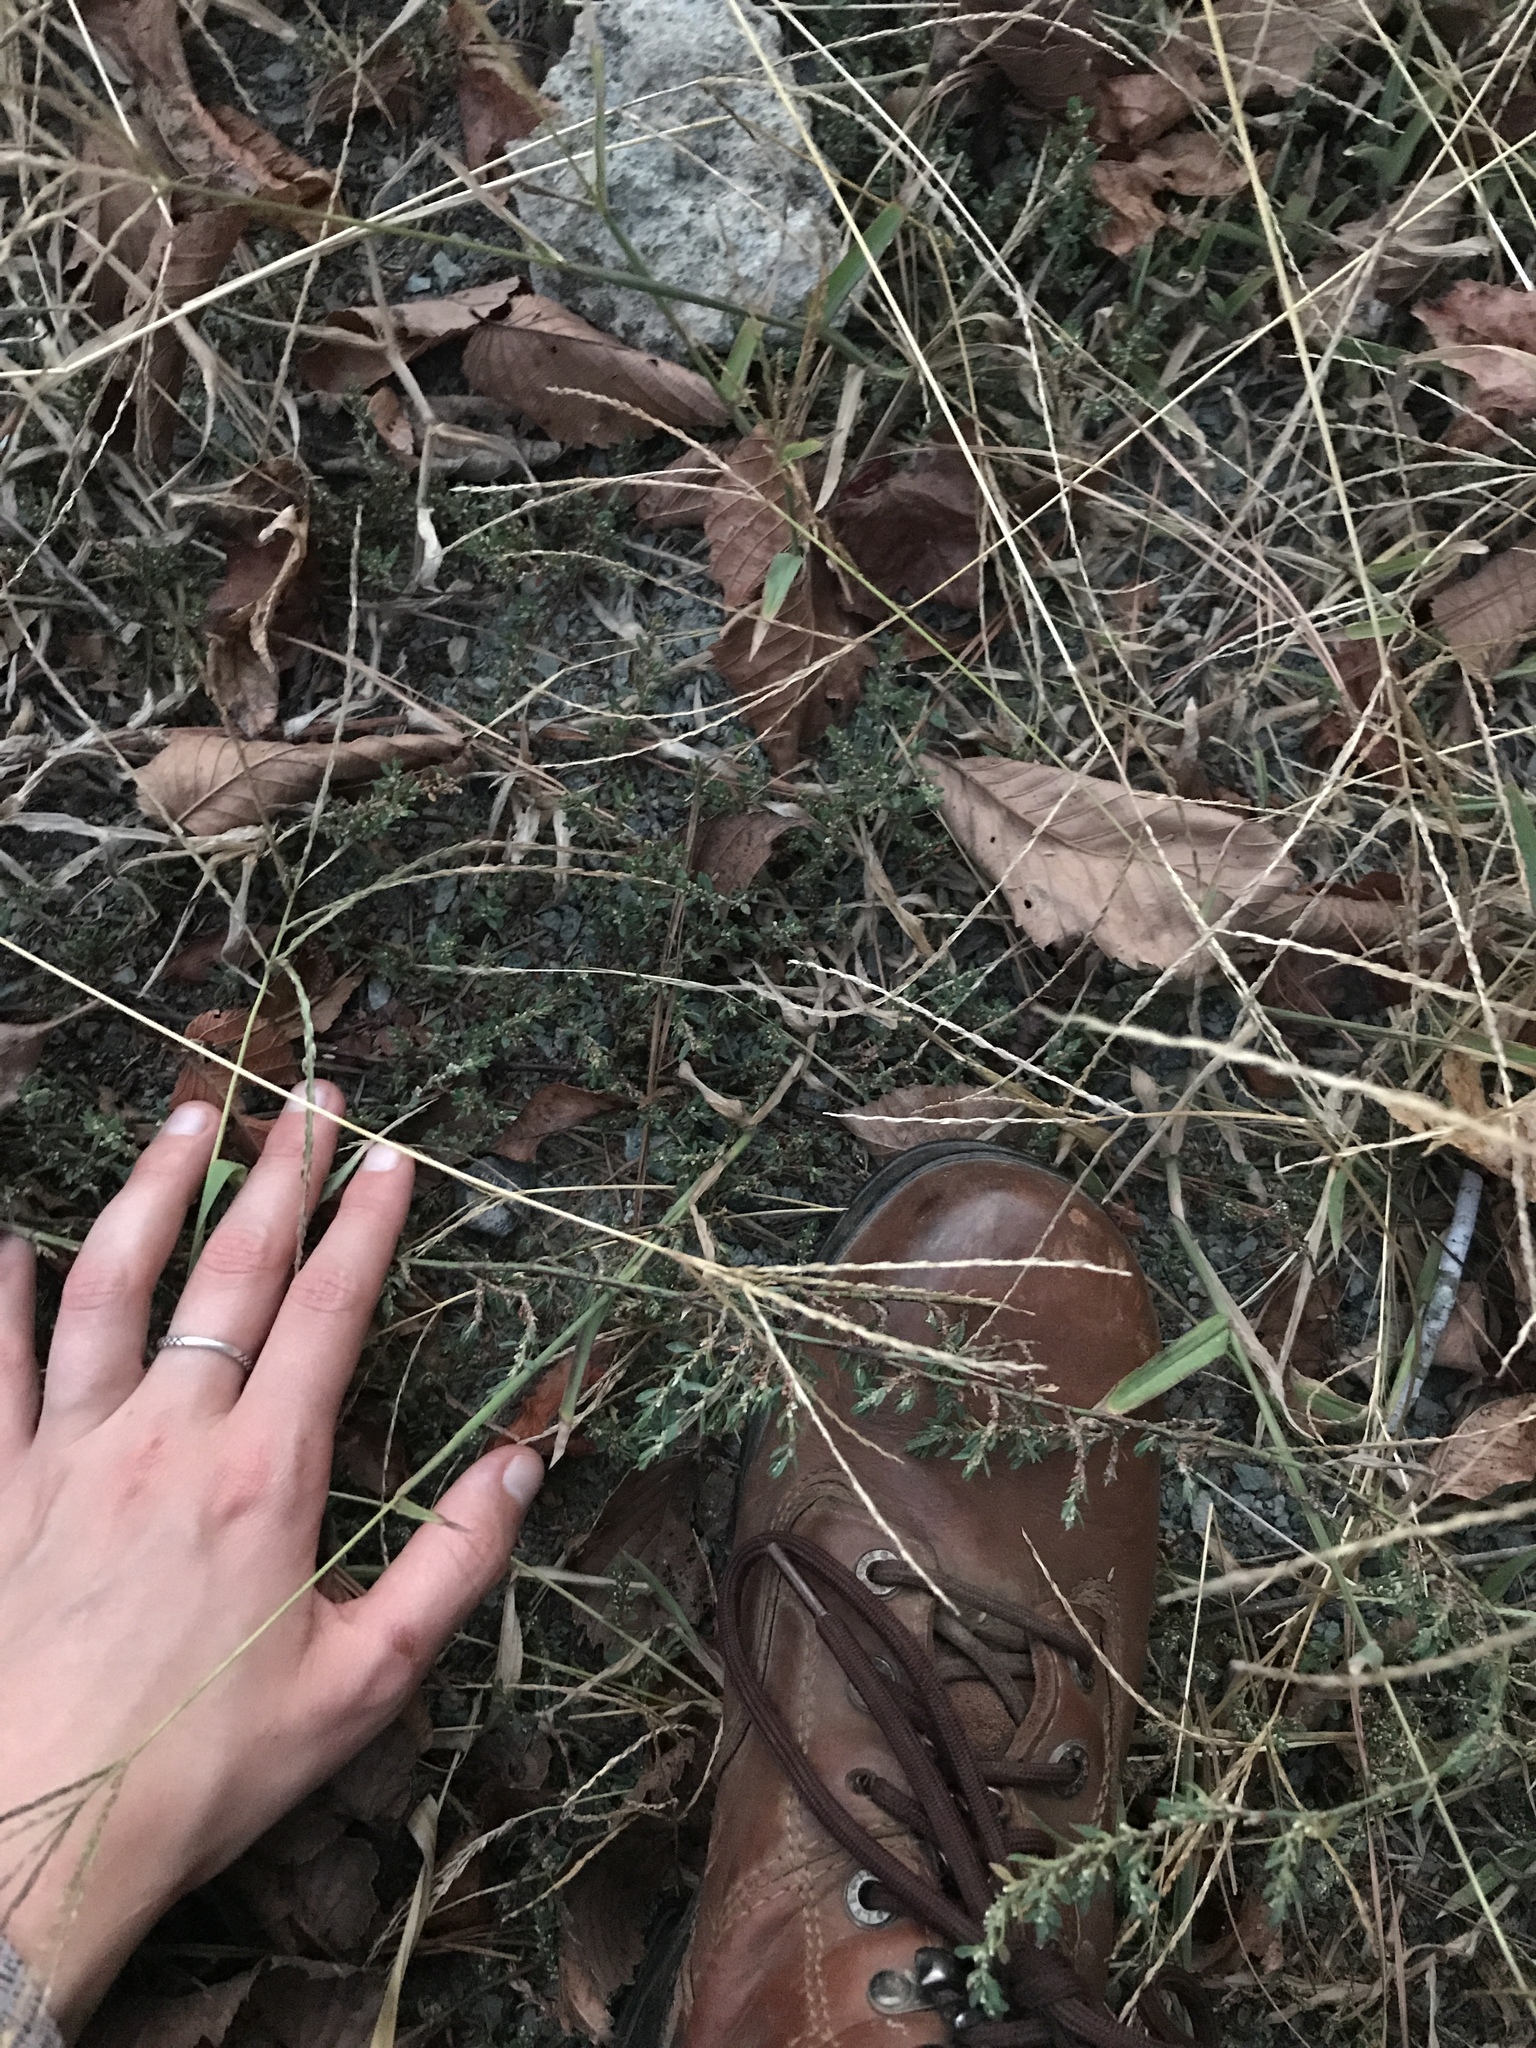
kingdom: Plantae
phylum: Tracheophyta
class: Magnoliopsida
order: Caryophyllales
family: Polygonaceae
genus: Polygonum
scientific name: Polygonum aviculare
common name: Prostrate knotweed
